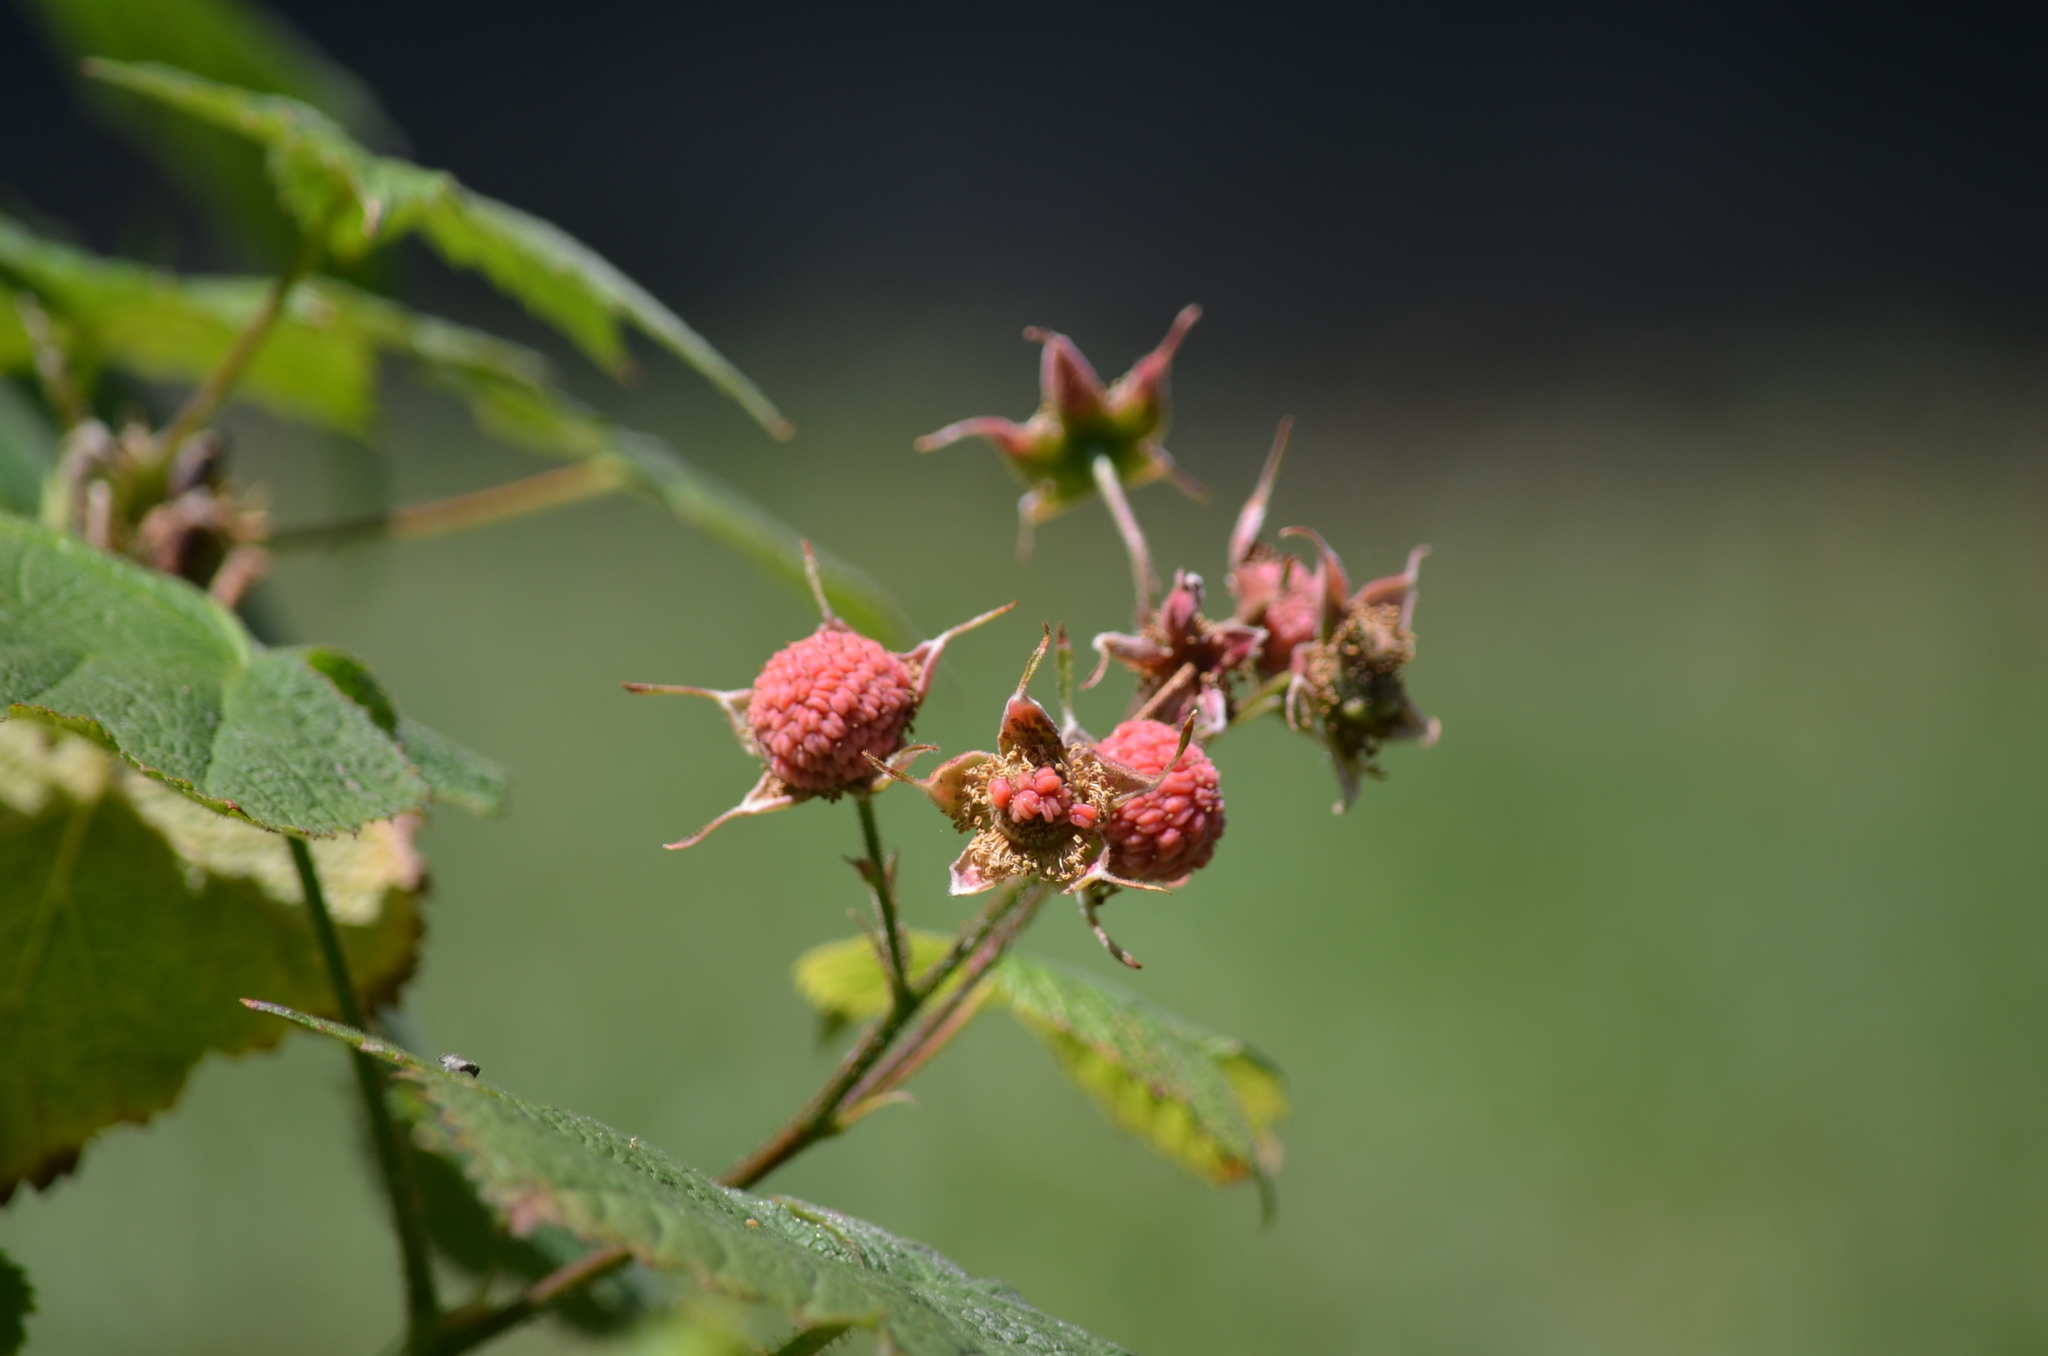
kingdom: Plantae
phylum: Tracheophyta
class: Magnoliopsida
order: Rosales
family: Rosaceae
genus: Rubus
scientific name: Rubus parviflorus
